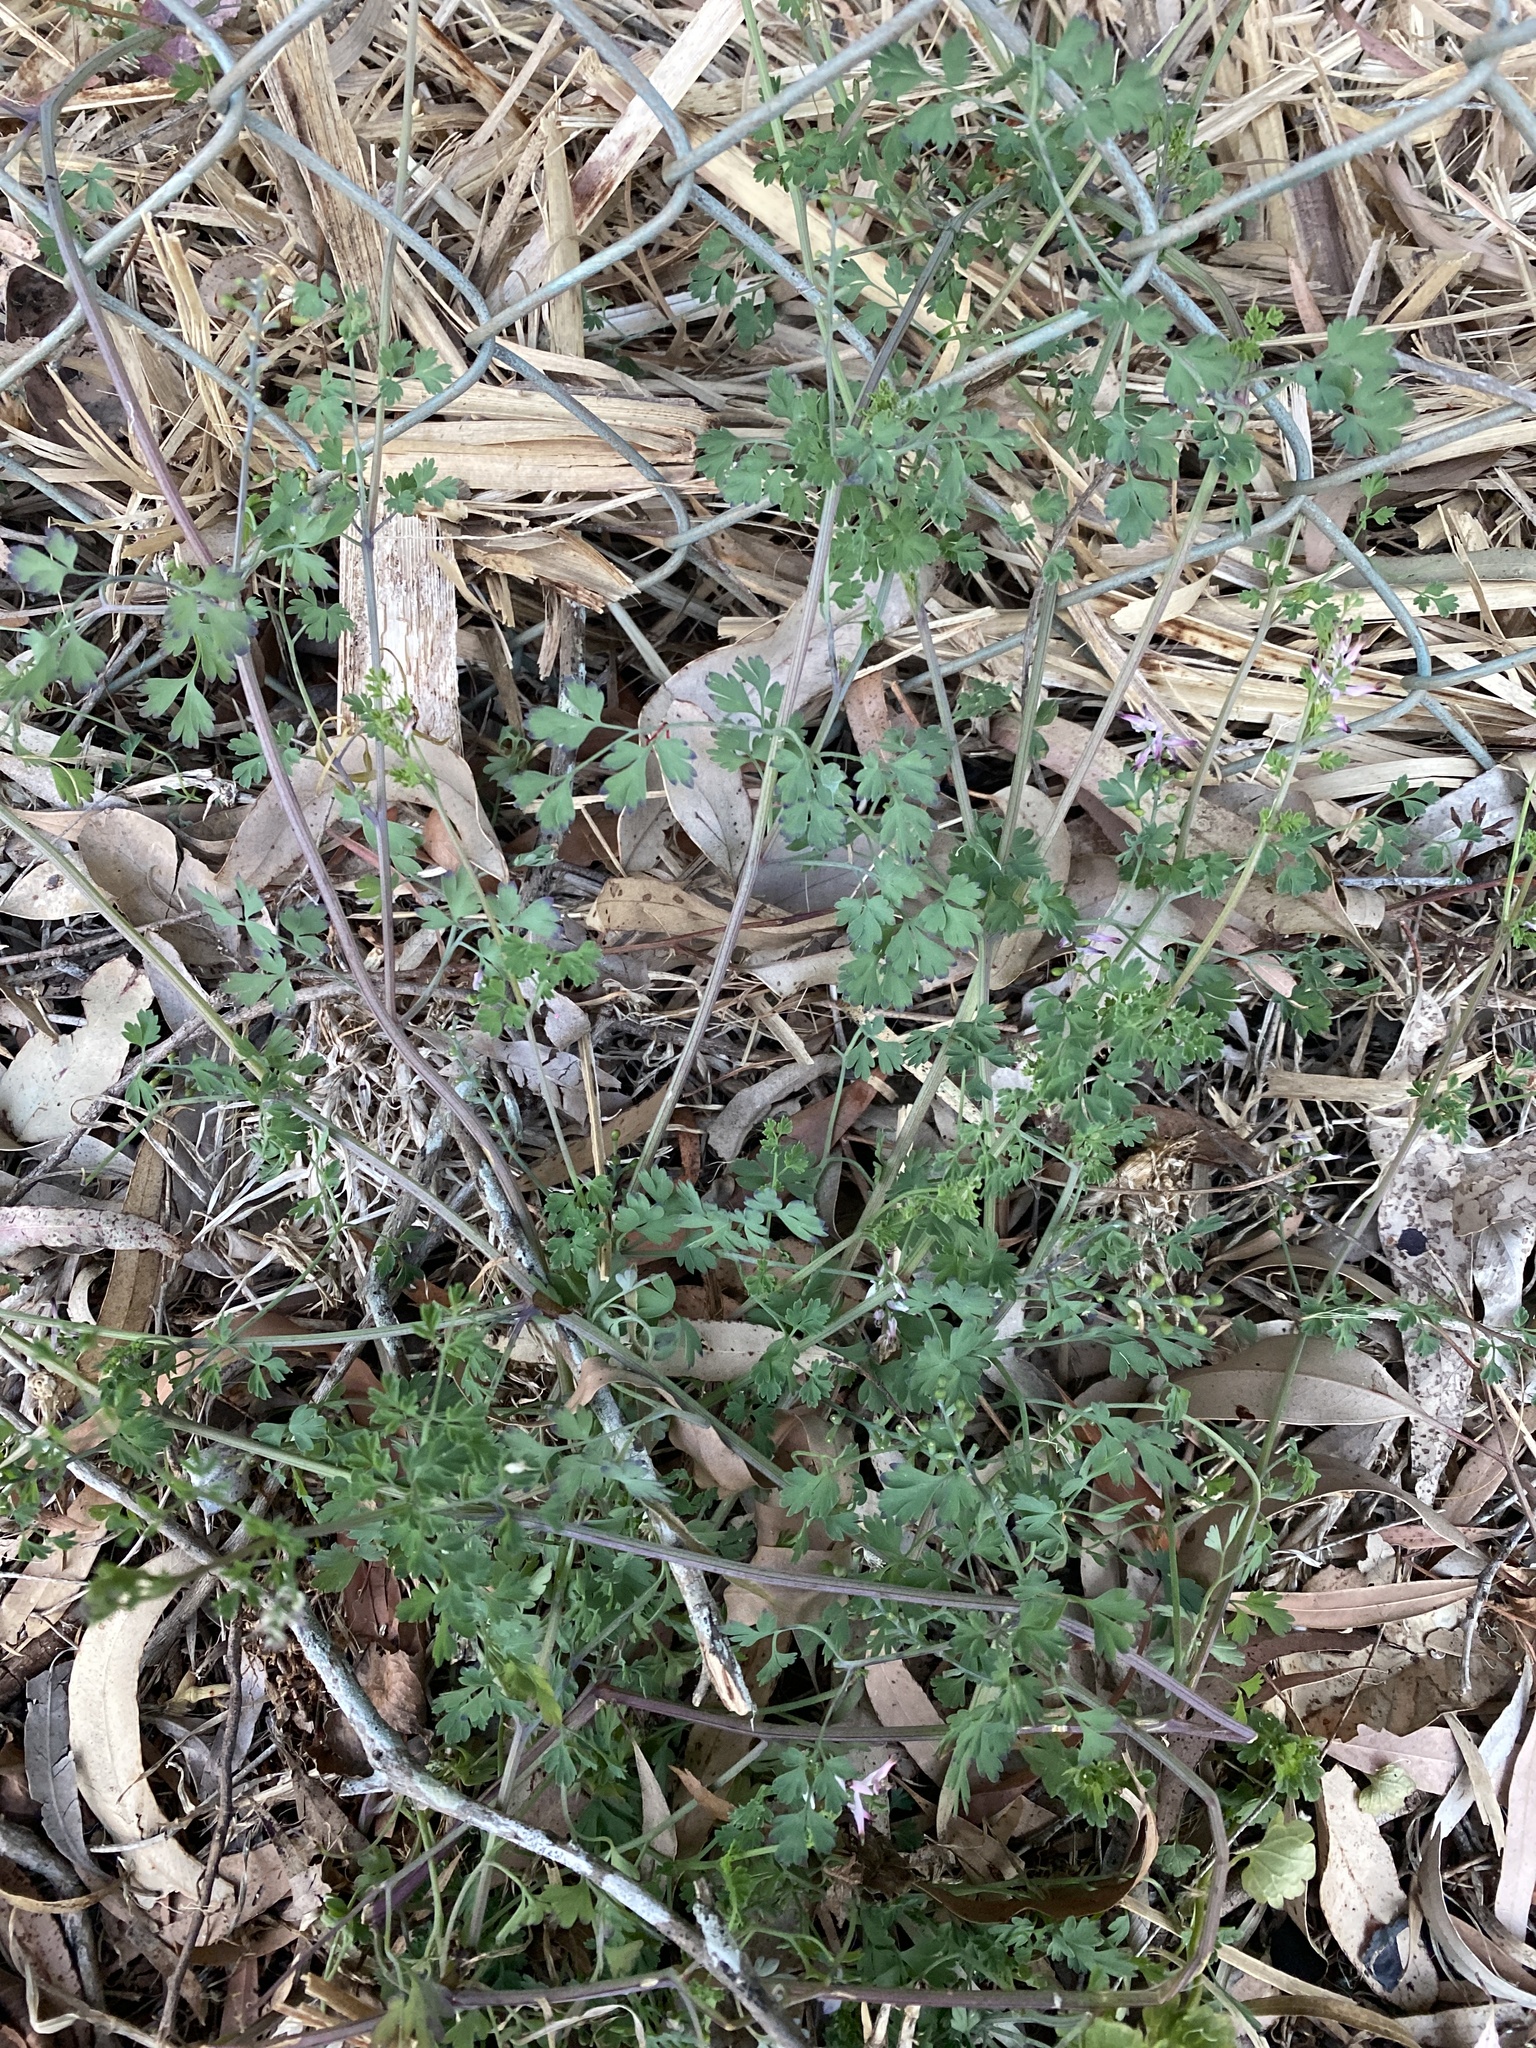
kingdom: Plantae
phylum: Tracheophyta
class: Magnoliopsida
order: Ranunculales
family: Papaveraceae
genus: Fumaria
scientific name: Fumaria muralis
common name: Common ramping-fumitory
